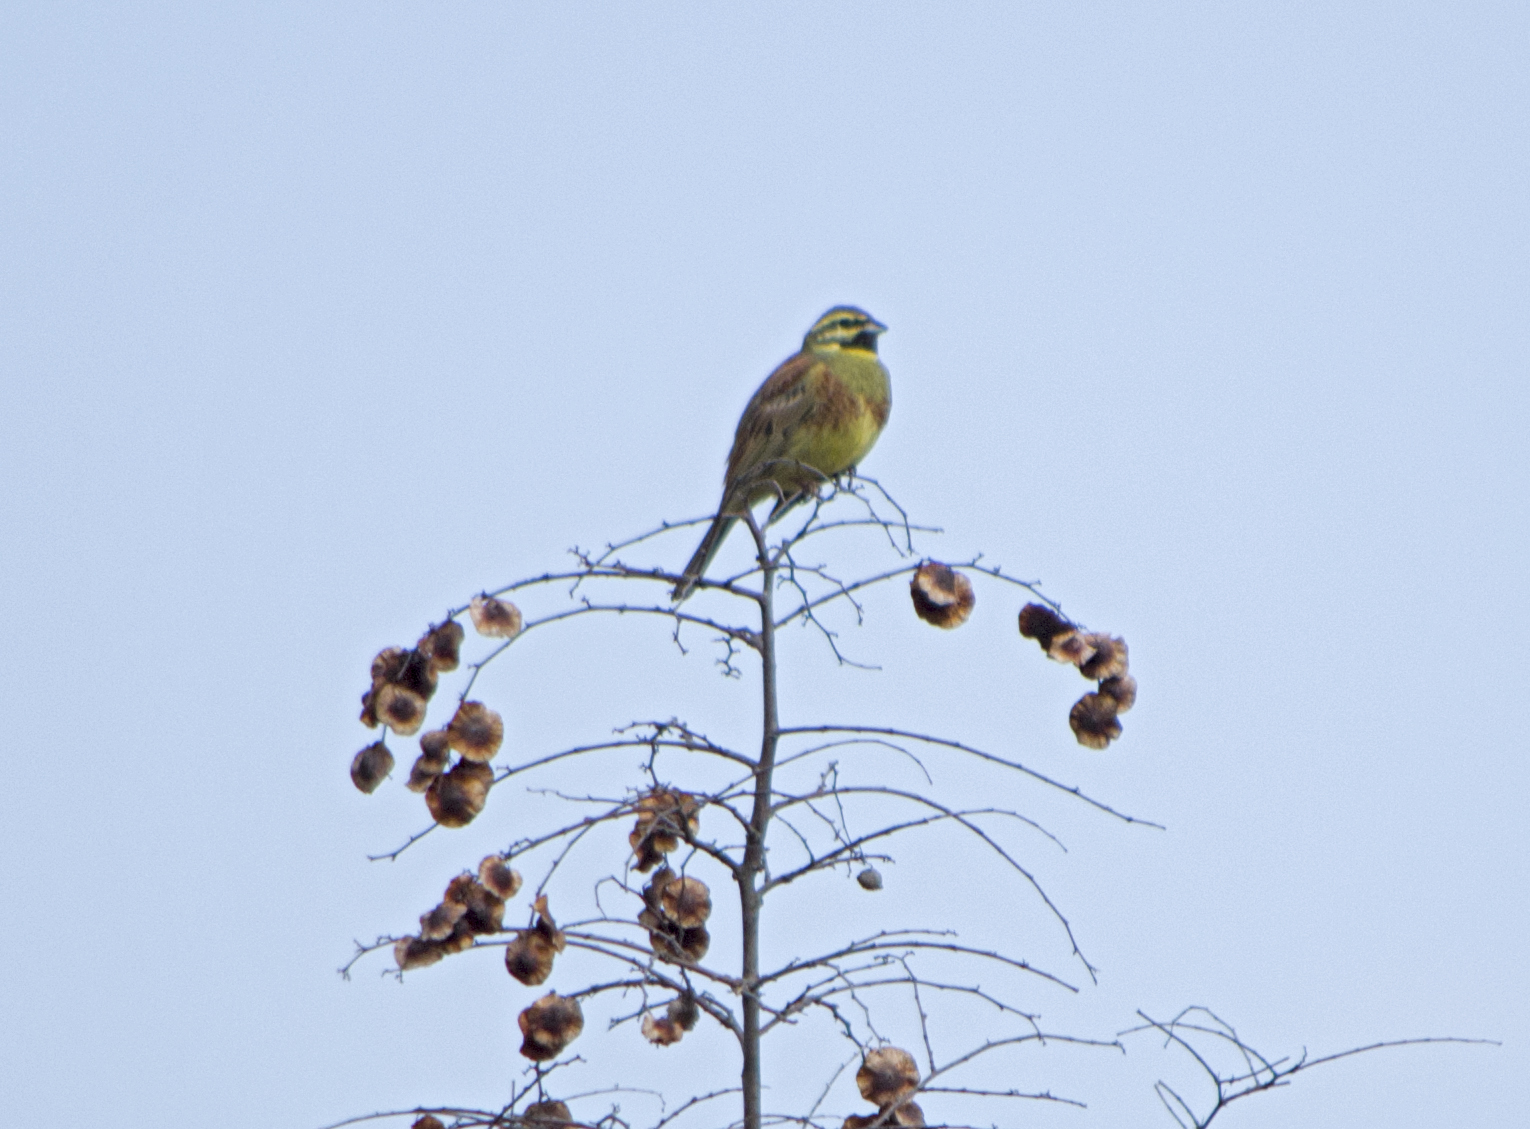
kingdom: Animalia
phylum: Chordata
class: Aves
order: Passeriformes
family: Emberizidae
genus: Emberiza
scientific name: Emberiza cirlus
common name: Cirl bunting
